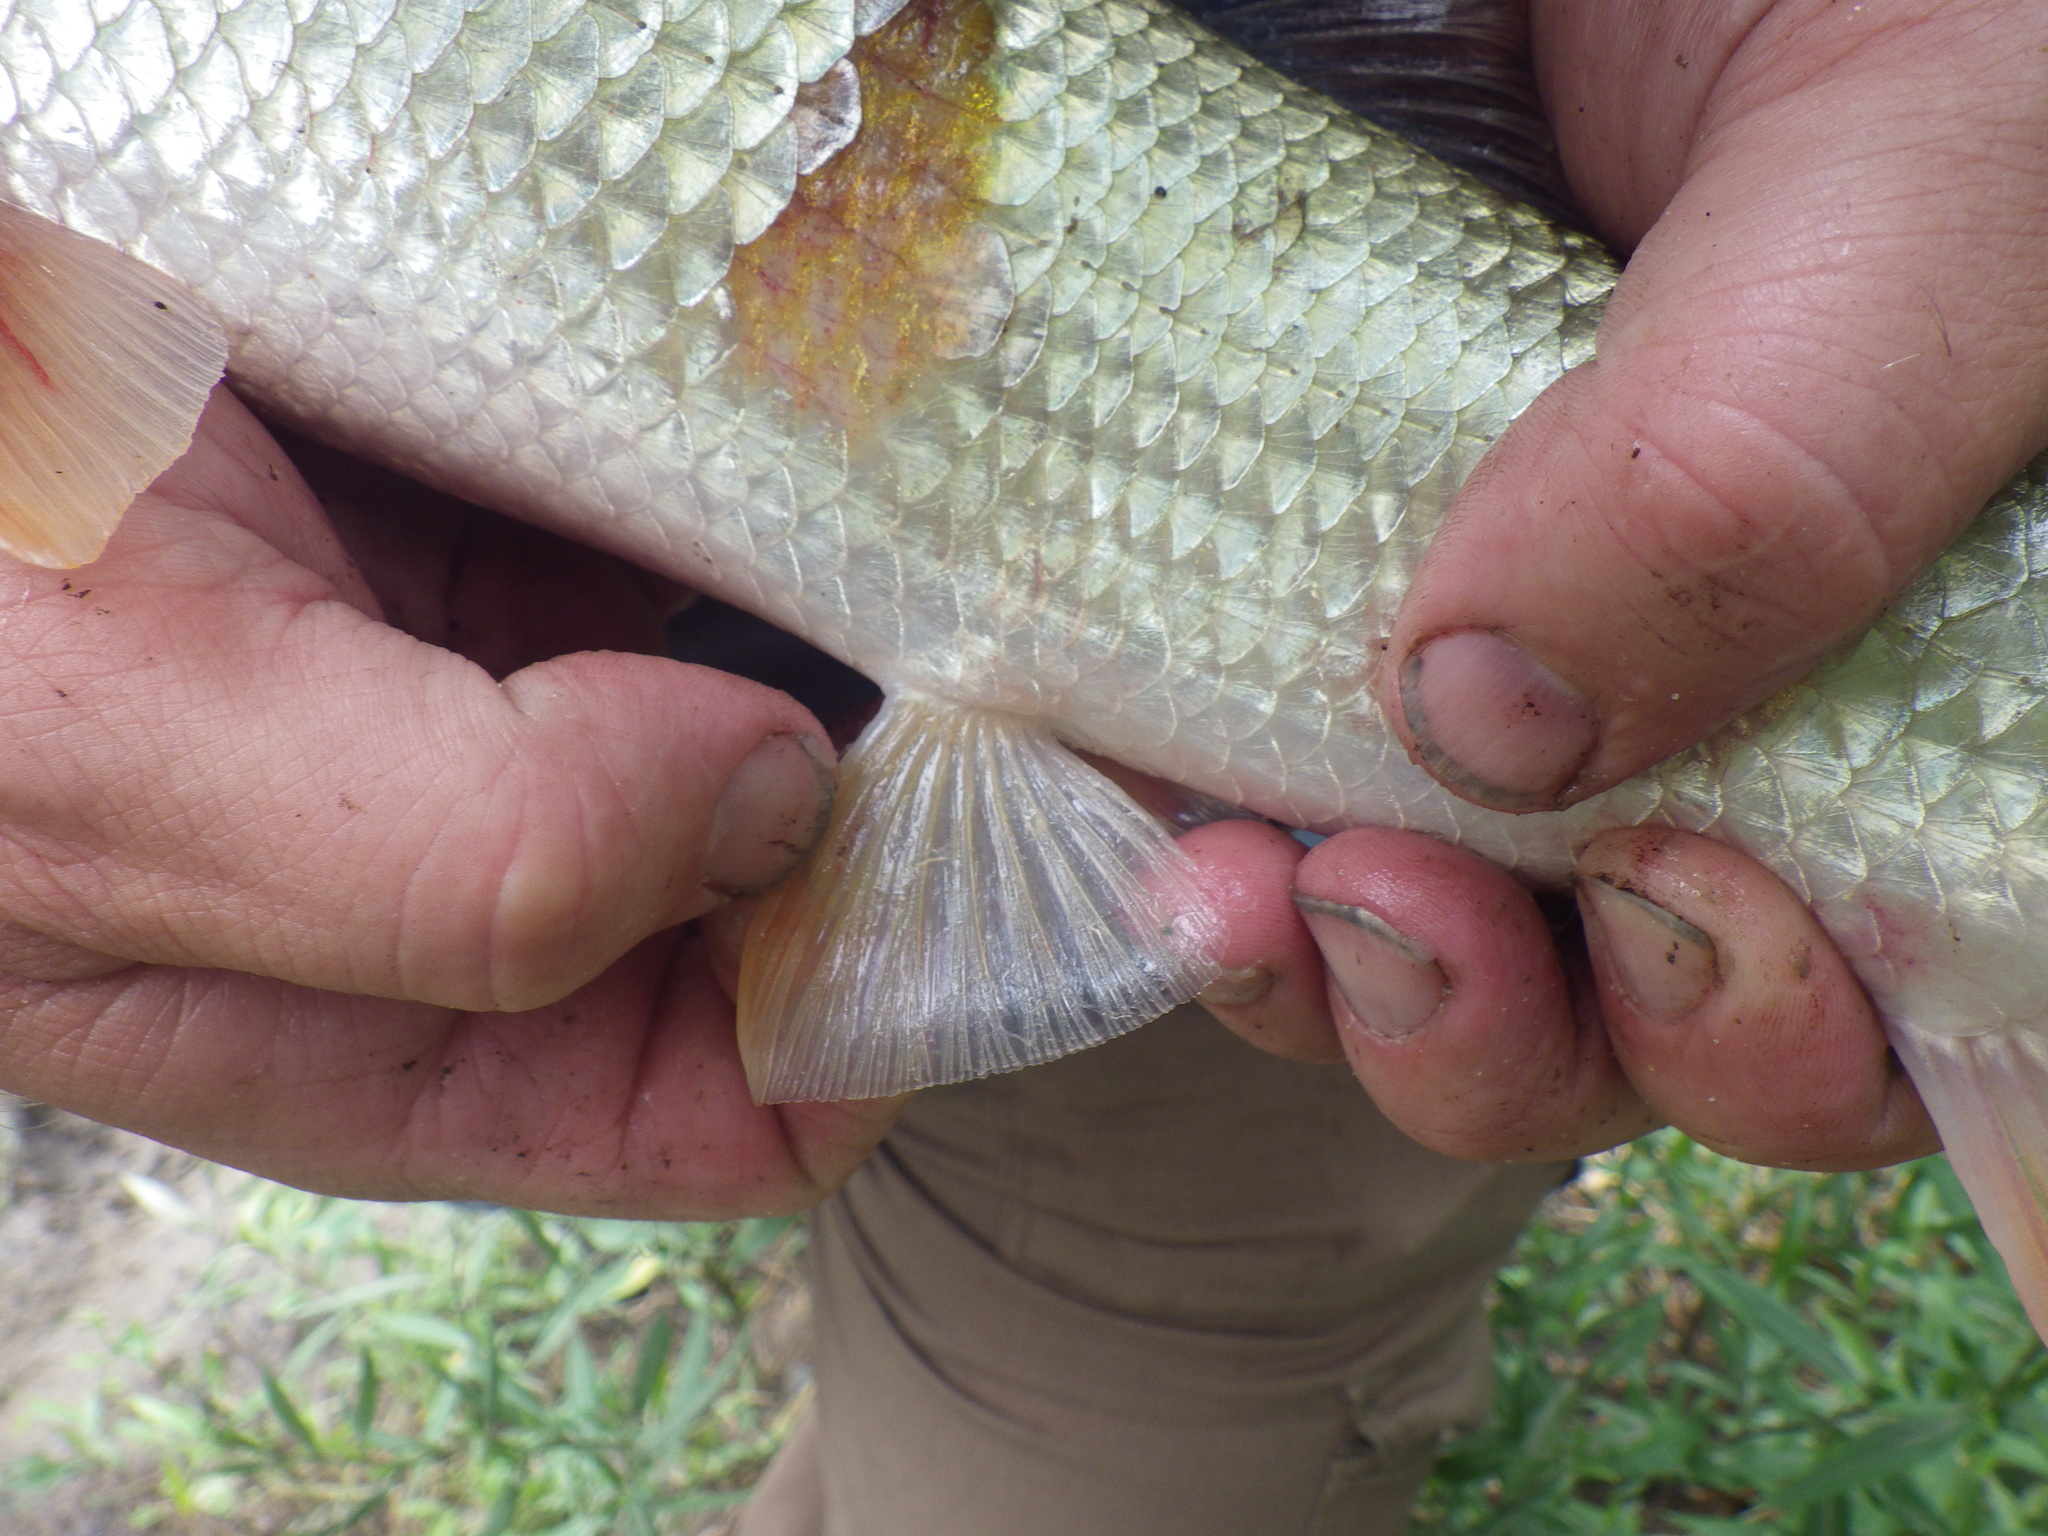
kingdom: Animalia
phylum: Chordata
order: Cypriniformes
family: Catostomidae
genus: Moxostoma
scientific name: Moxostoma duquesnii
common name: Black redhorse
